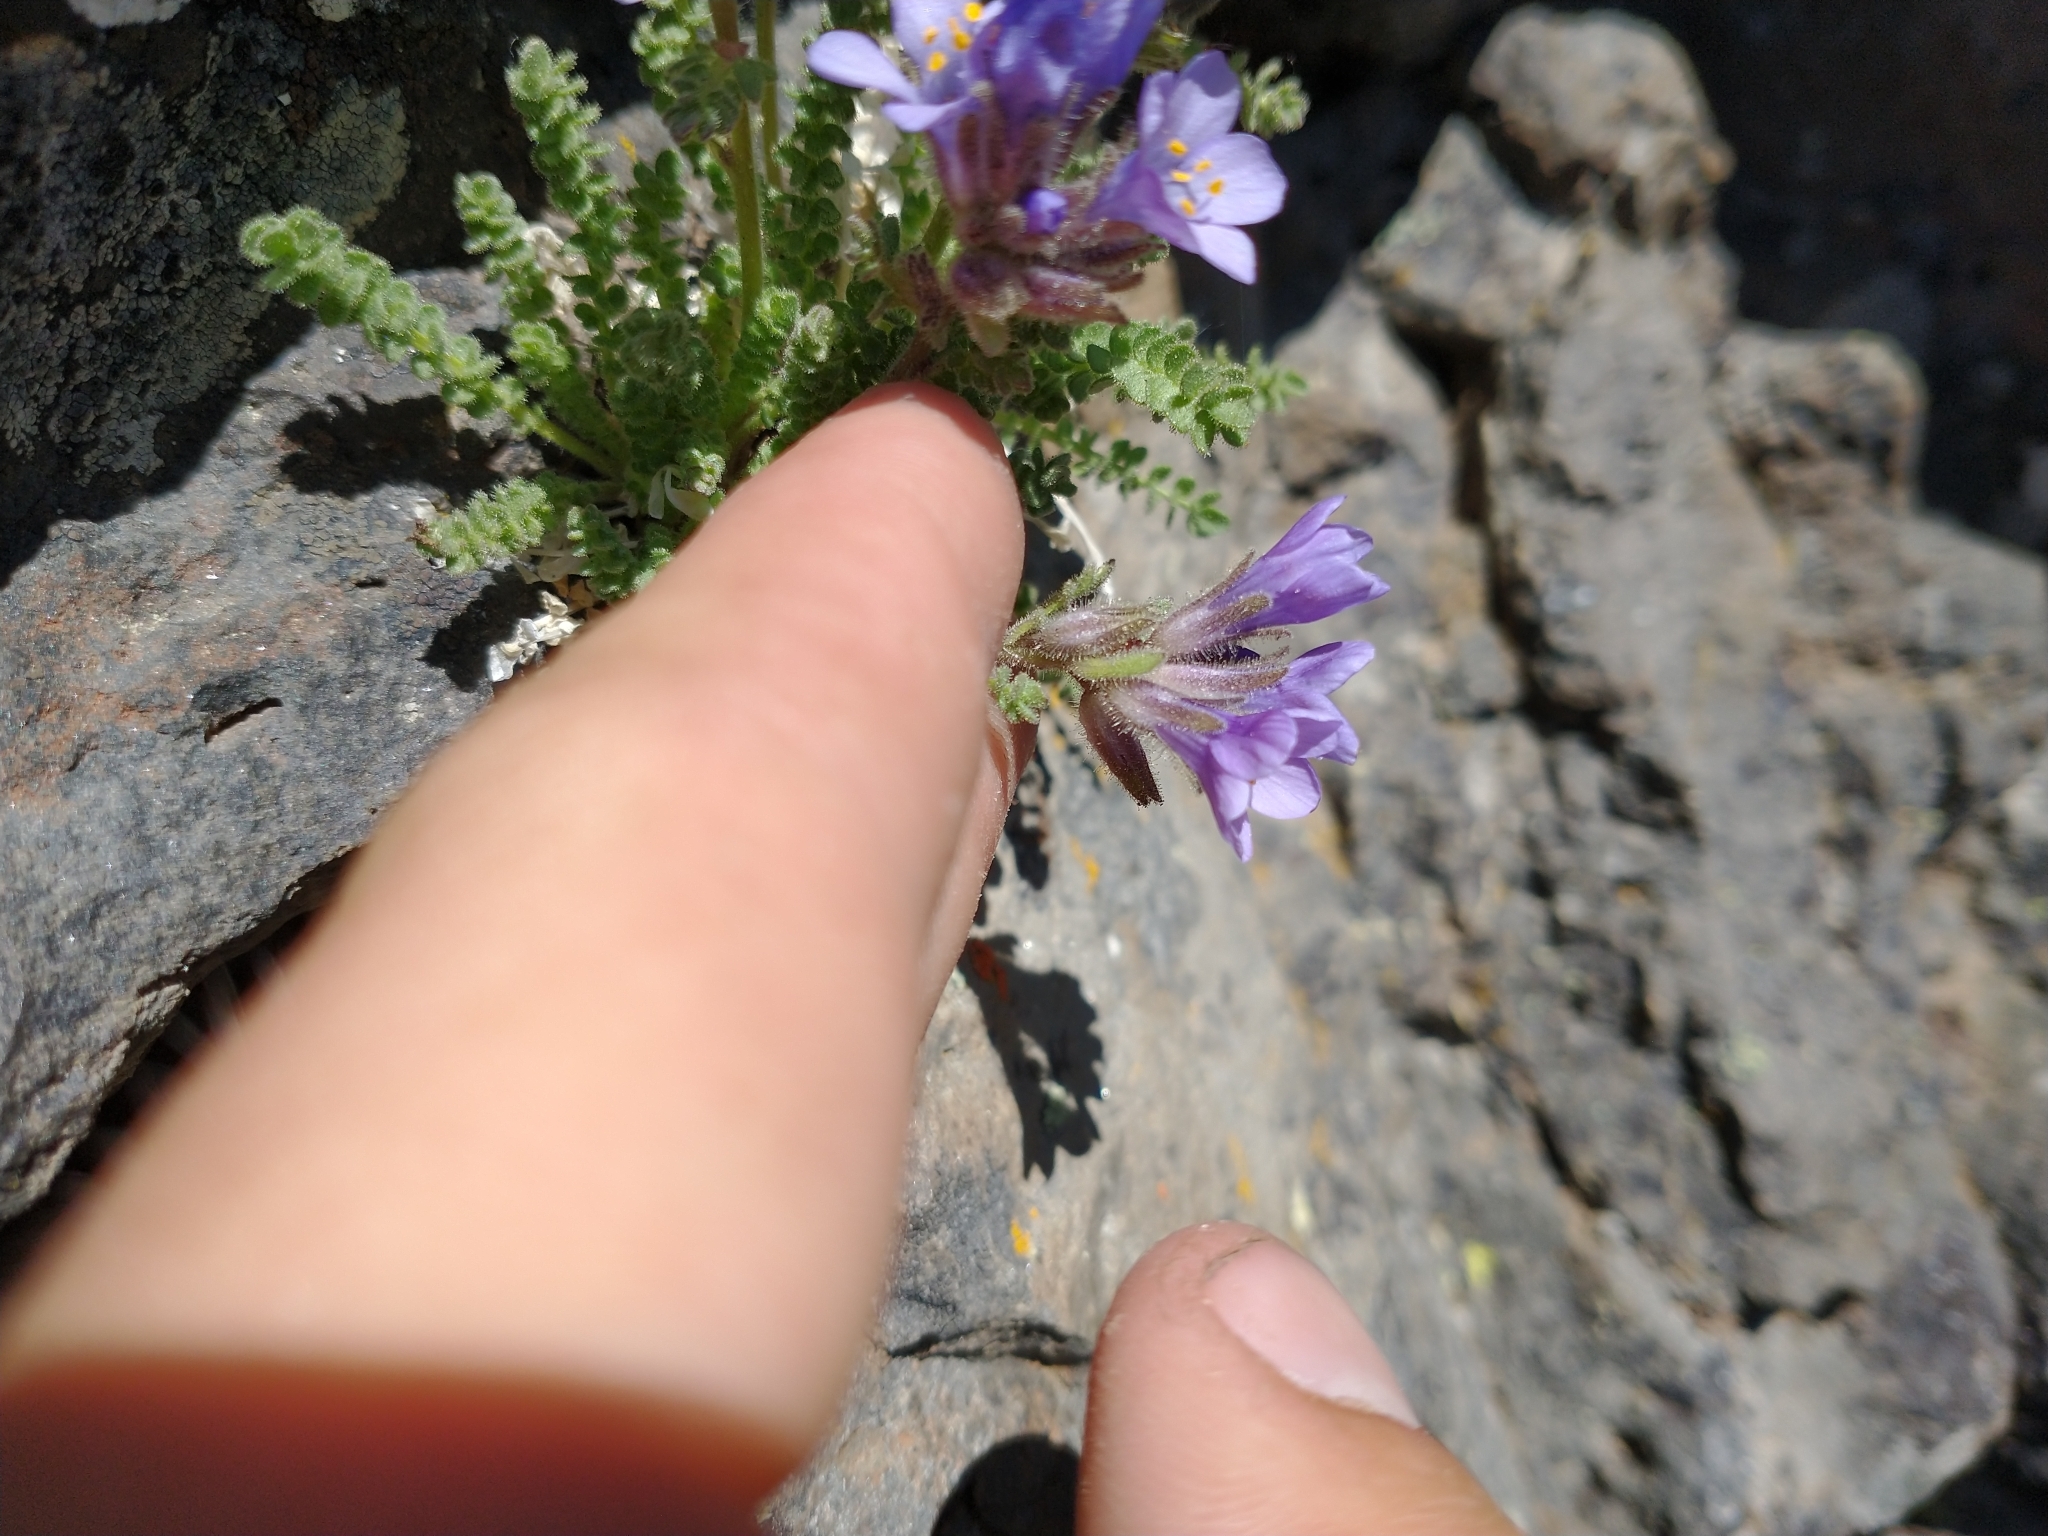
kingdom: Plantae
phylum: Tracheophyta
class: Magnoliopsida
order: Ericales
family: Polemoniaceae
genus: Polemonium
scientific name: Polemonium viscosum
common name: Skunk jacob's-ladder
